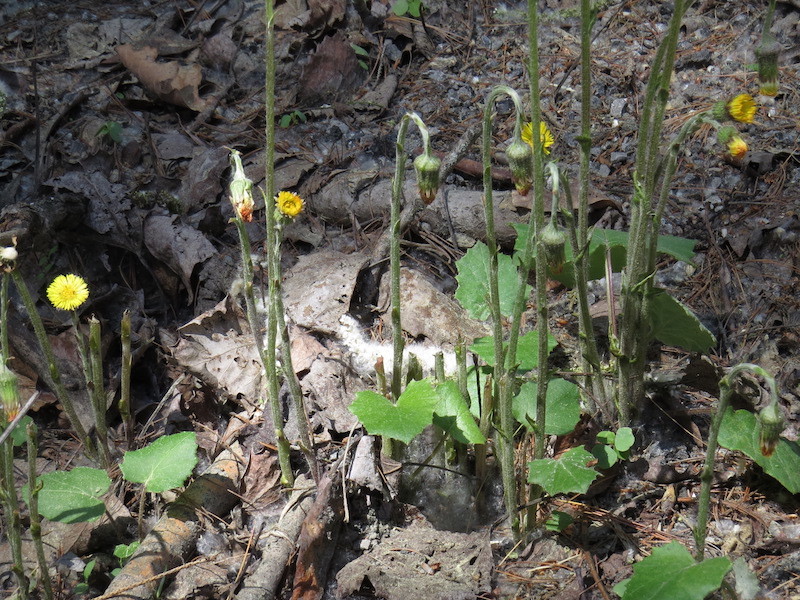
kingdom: Plantae
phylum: Tracheophyta
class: Magnoliopsida
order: Asterales
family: Asteraceae
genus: Tussilago
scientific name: Tussilago farfara
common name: Coltsfoot
